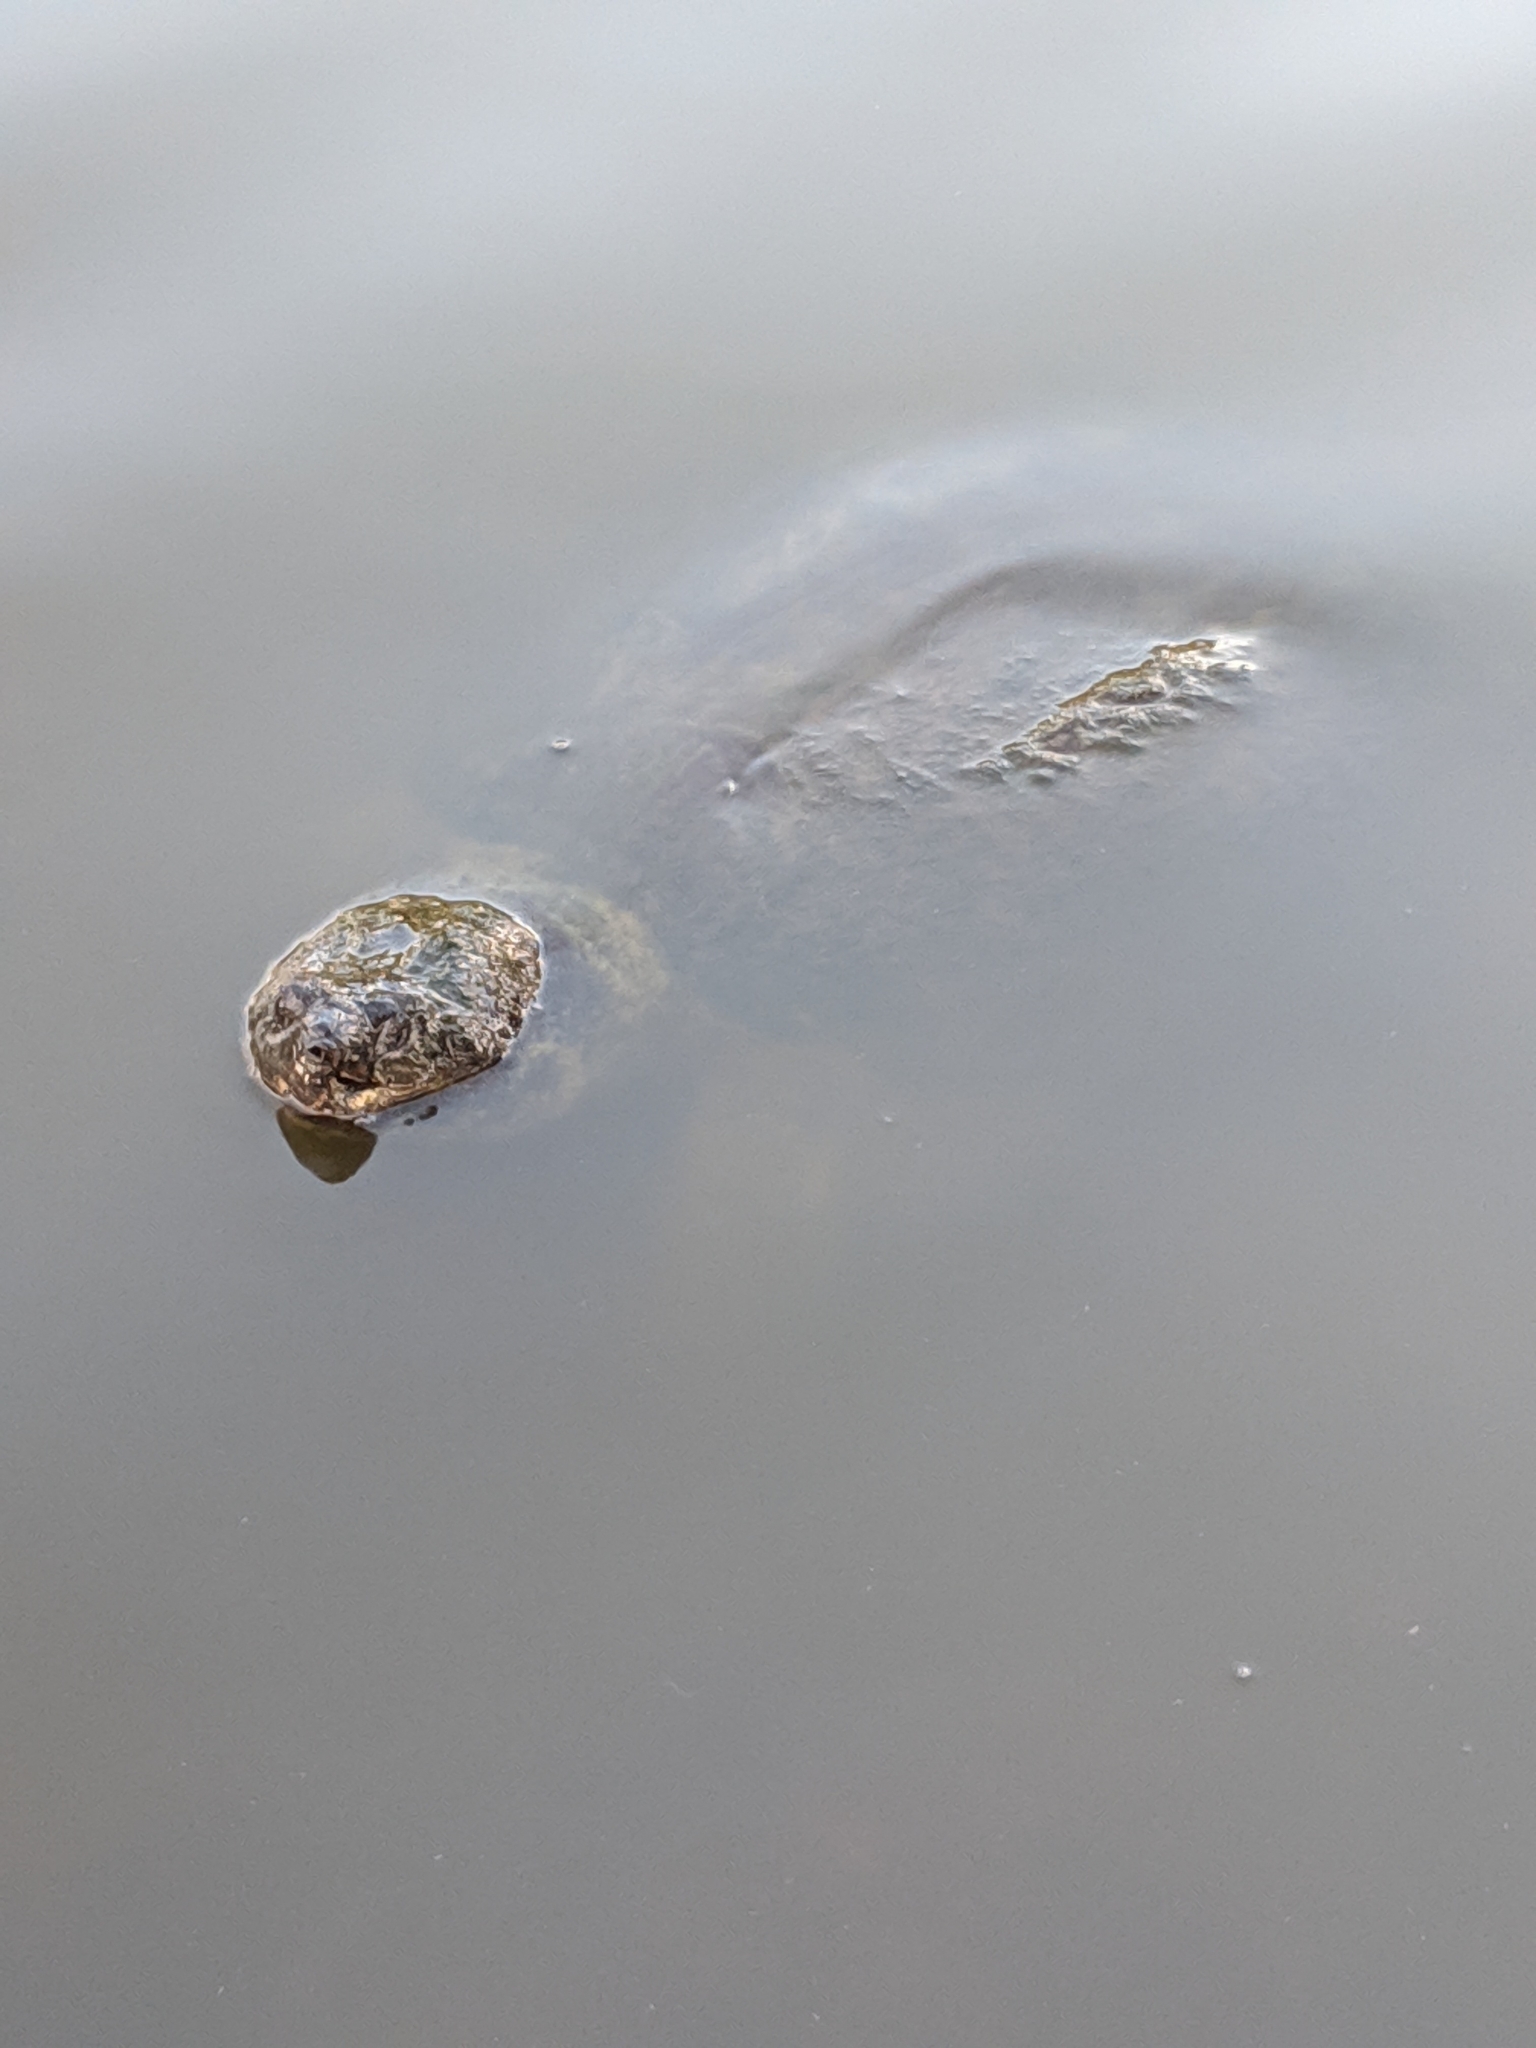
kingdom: Animalia
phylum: Chordata
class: Testudines
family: Chelydridae
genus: Chelydra
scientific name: Chelydra serpentina
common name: Common snapping turtle
